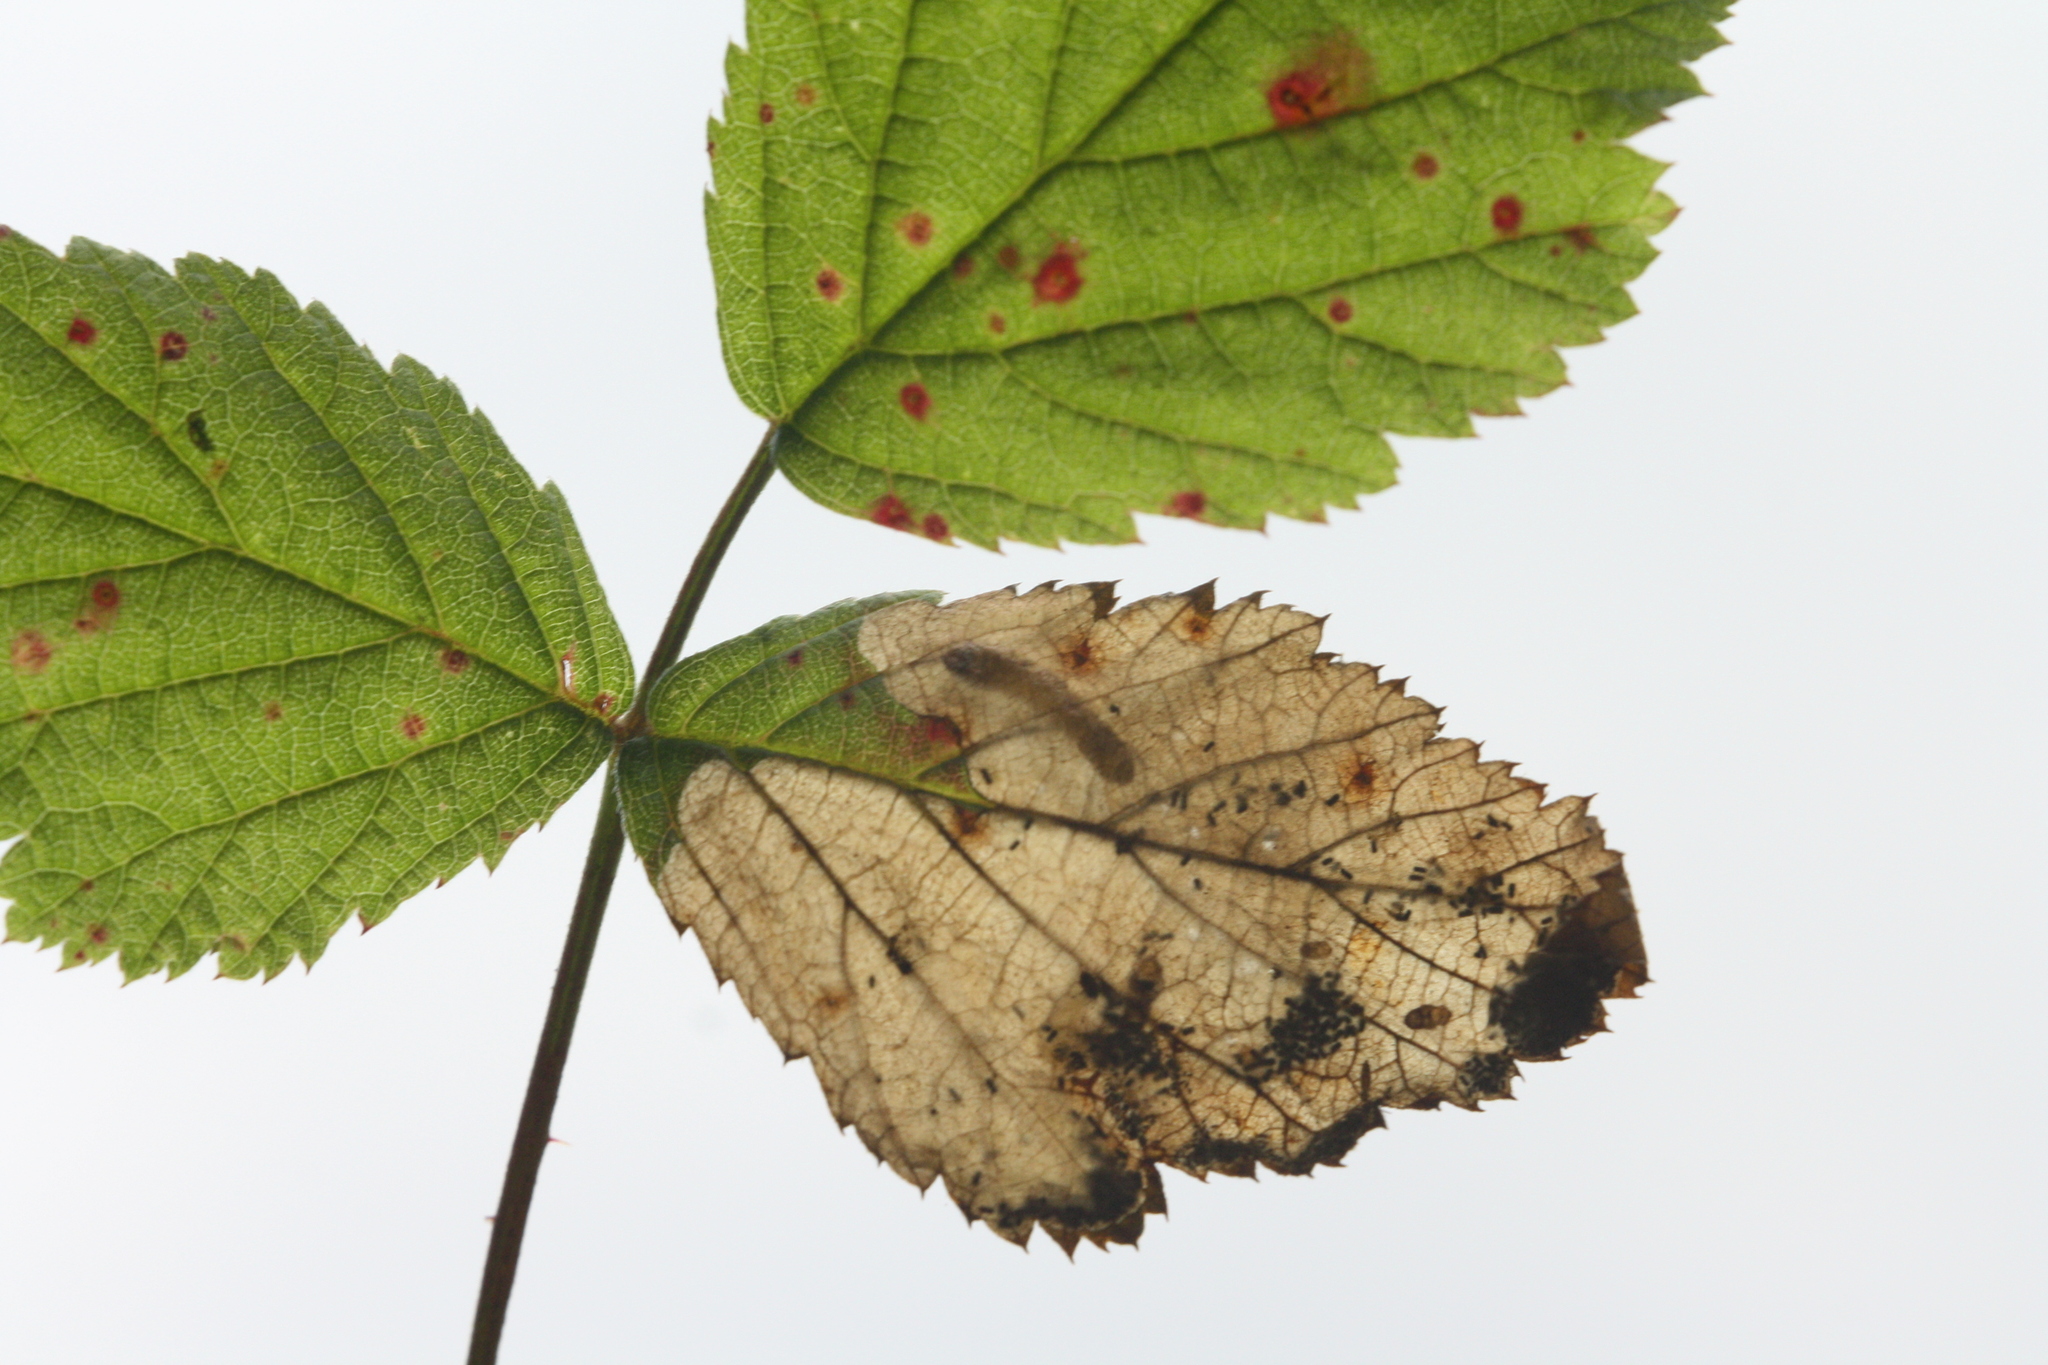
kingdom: Animalia
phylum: Arthropoda
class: Insecta
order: Hymenoptera
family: Tenthredinidae
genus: Metallus
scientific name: Metallus pumilus
